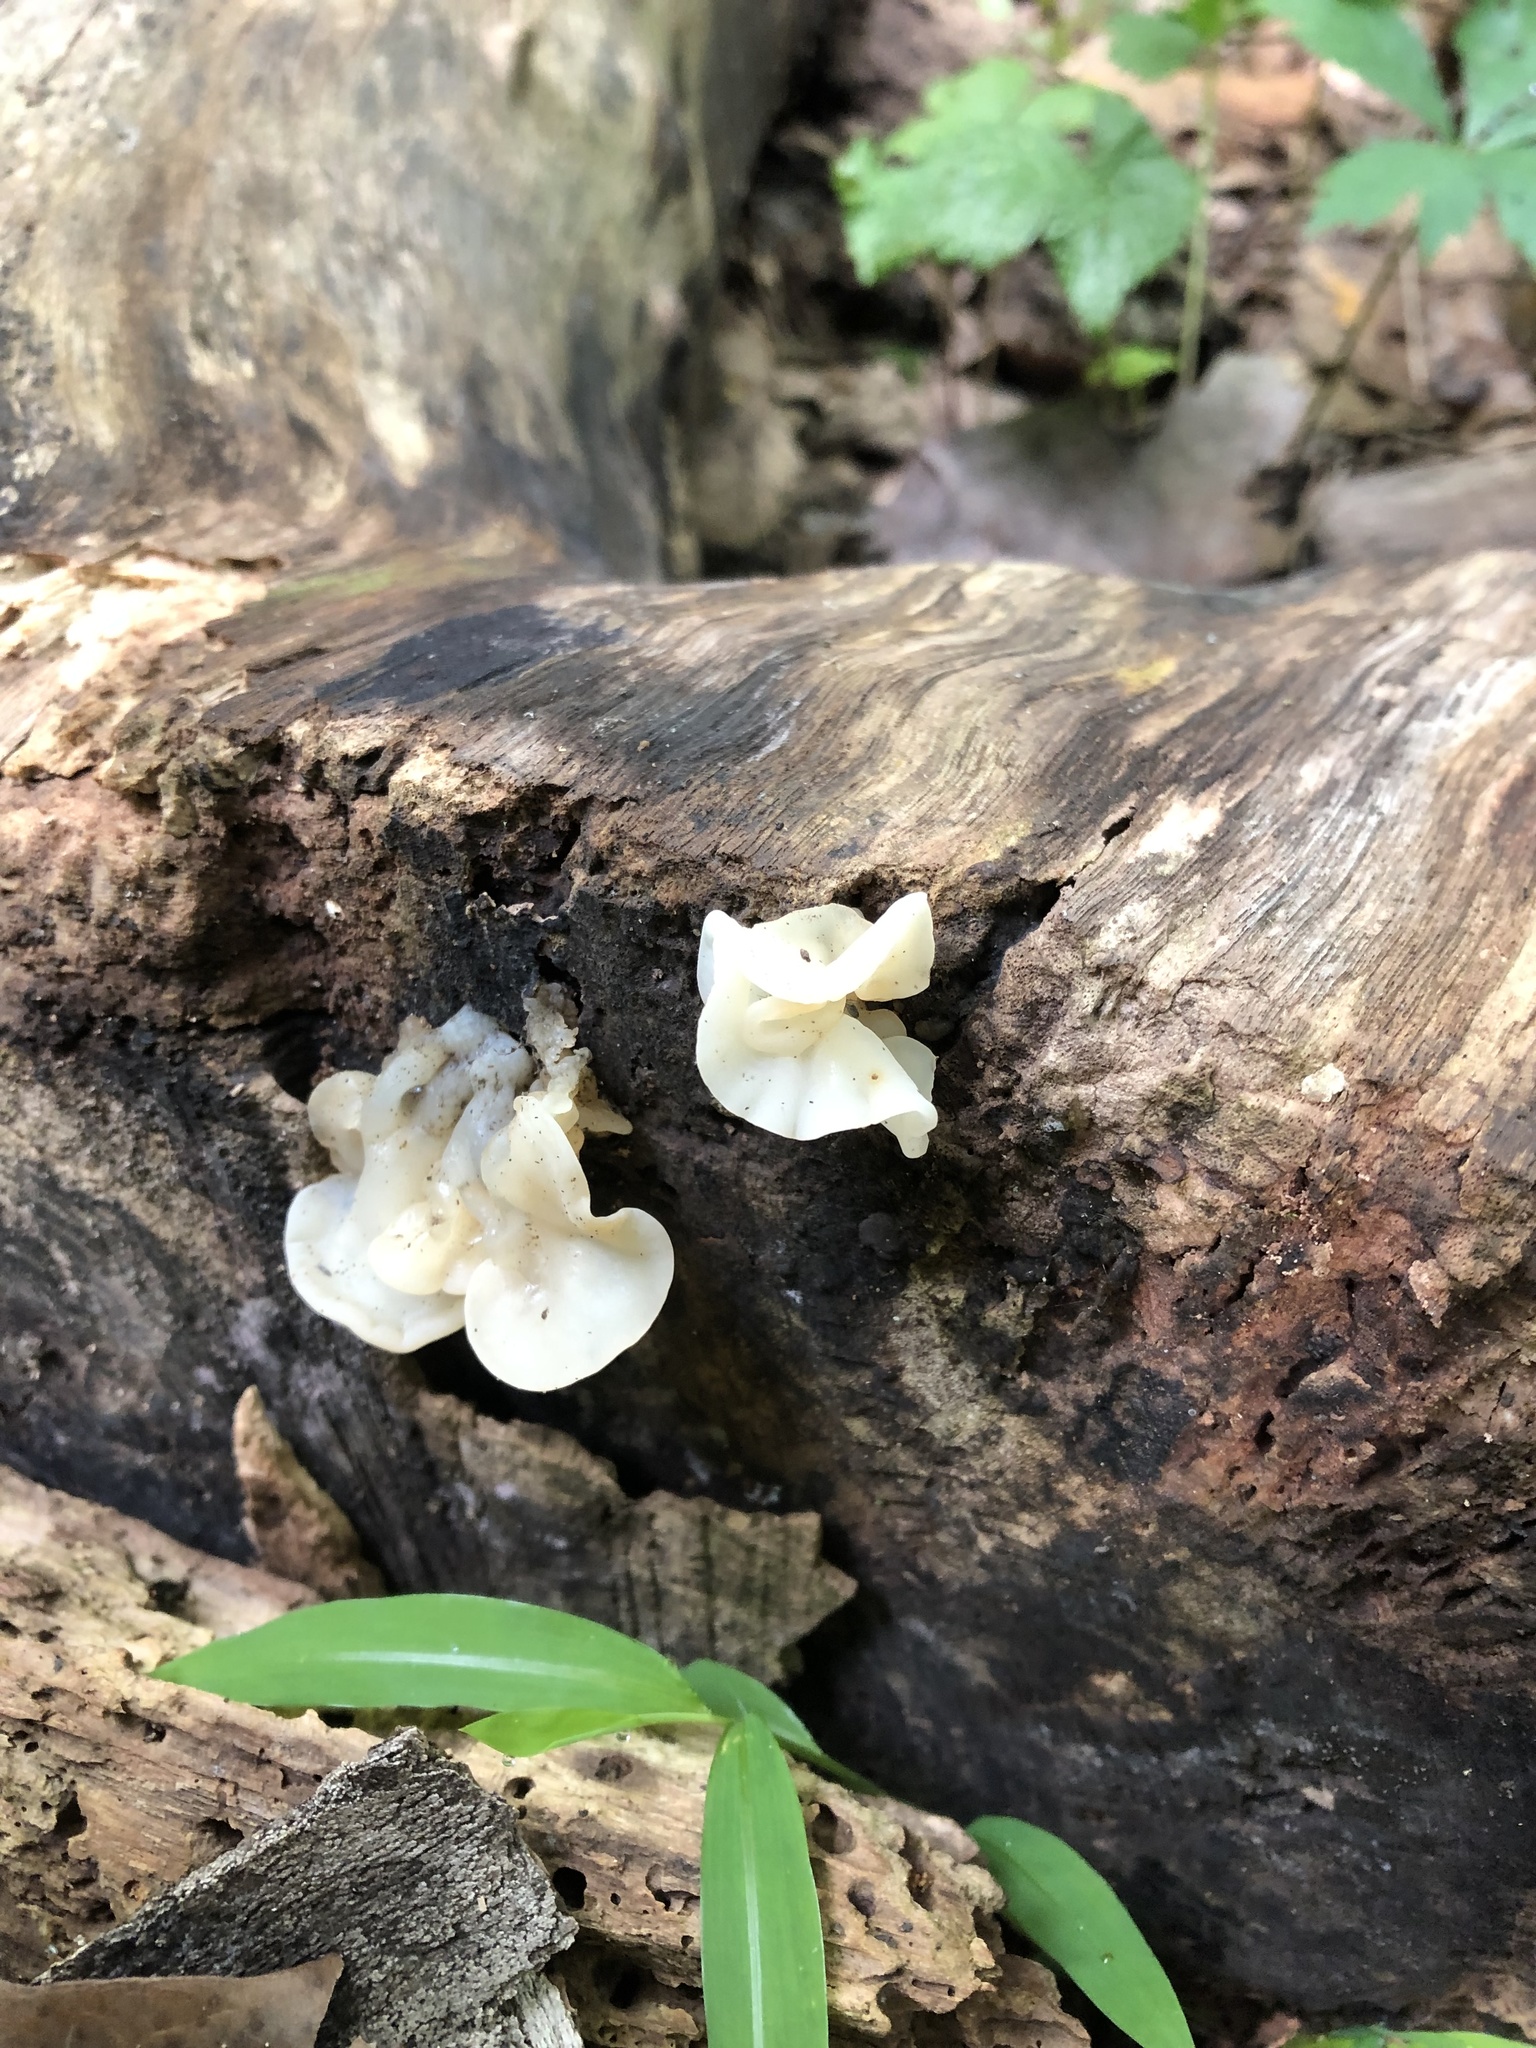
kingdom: Fungi
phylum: Basidiomycota
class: Agaricomycetes
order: Auriculariales
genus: Ductifera
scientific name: Ductifera pululahuana
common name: White jelly fungus
